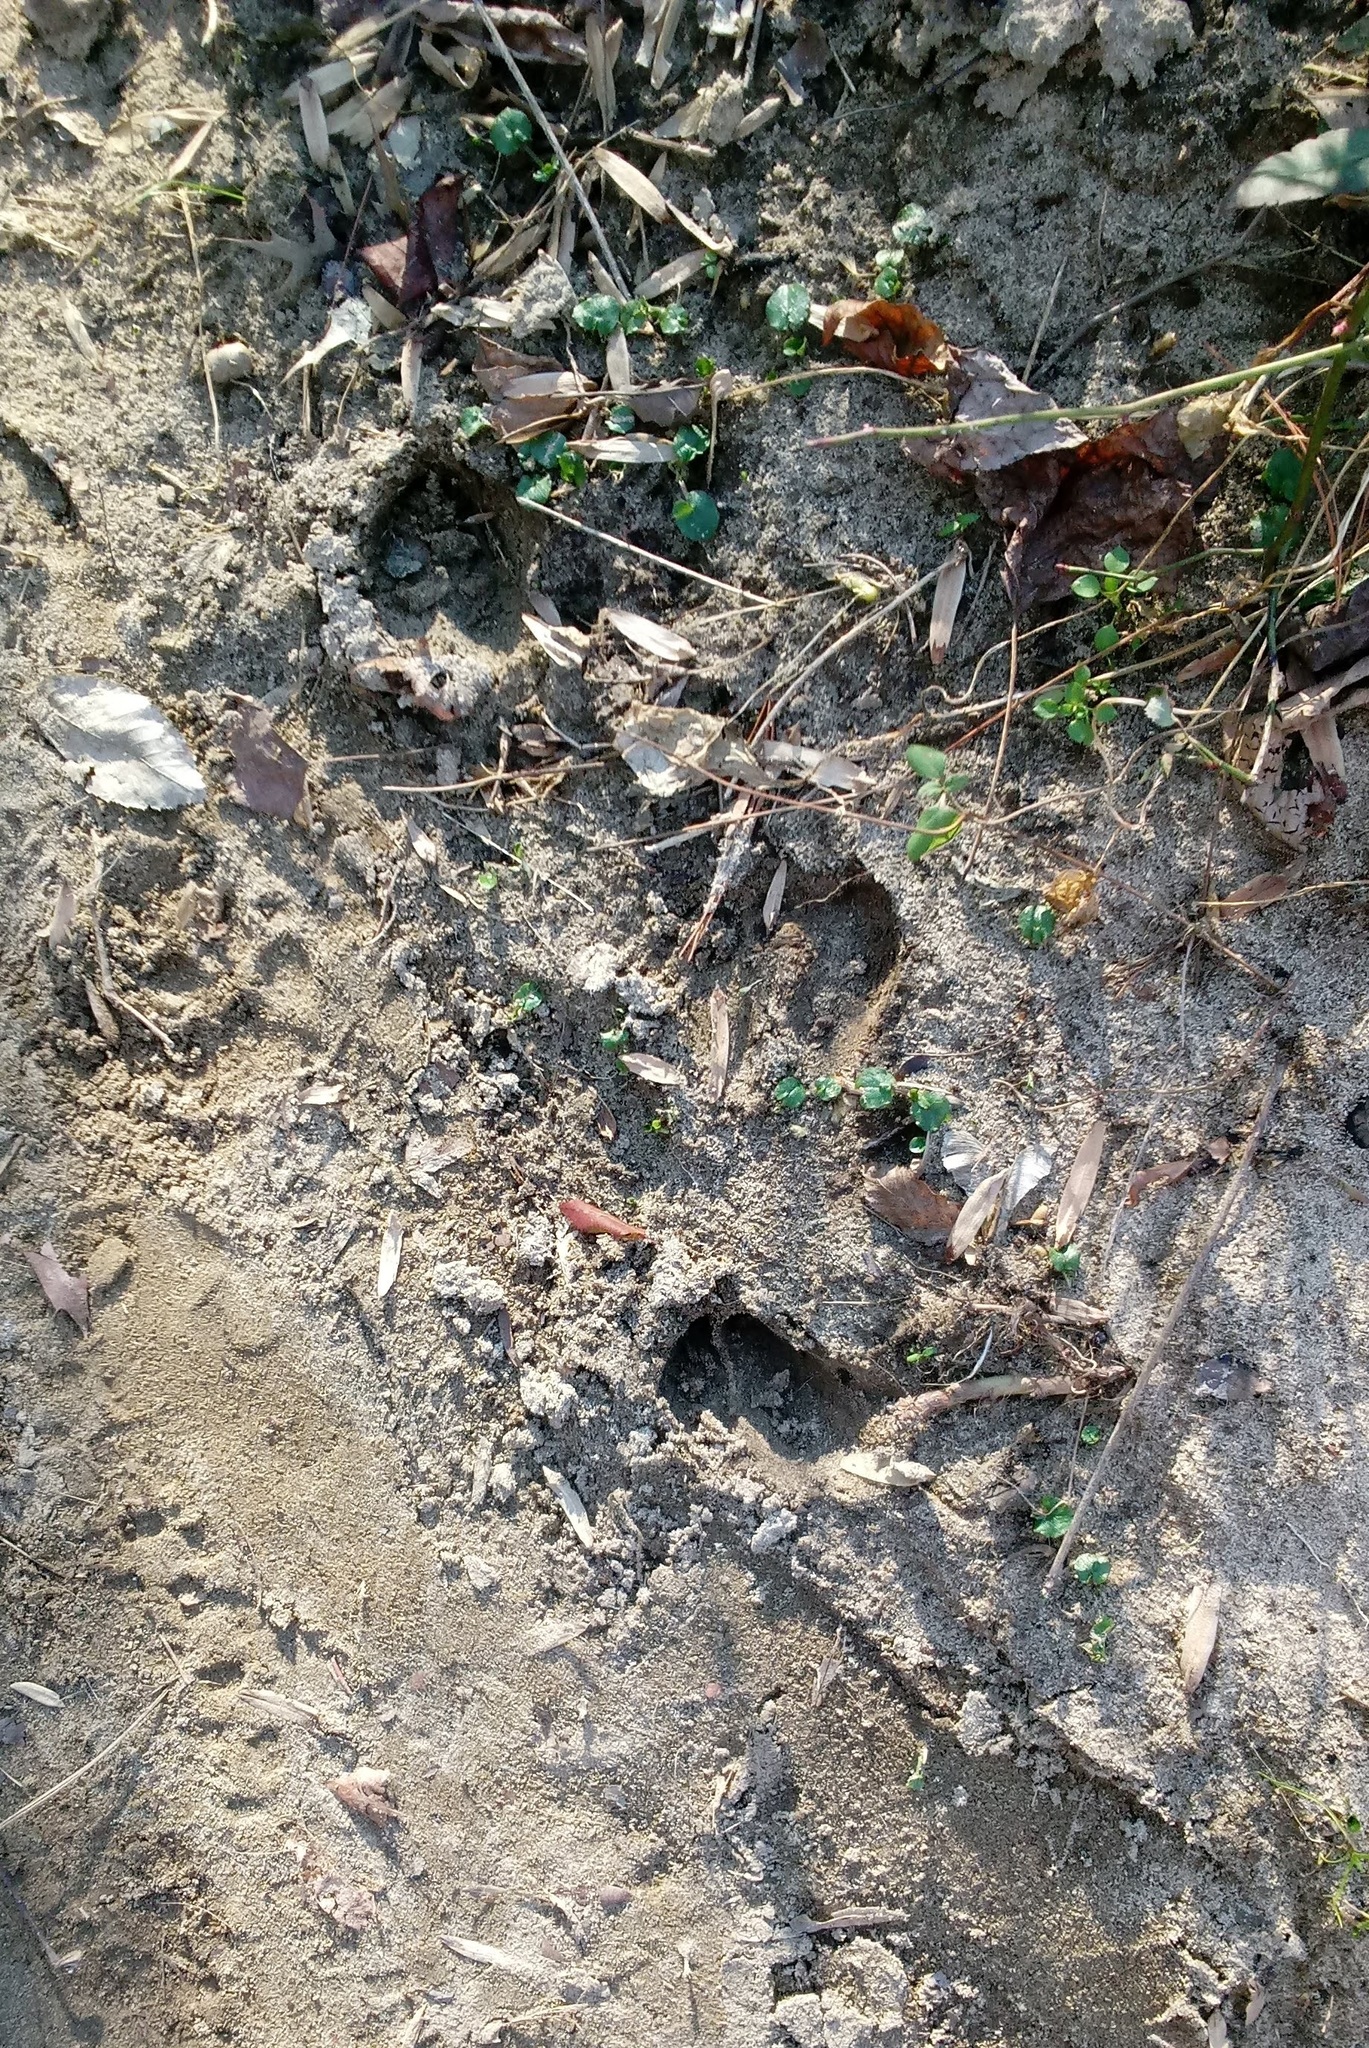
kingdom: Animalia
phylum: Chordata
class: Mammalia
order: Artiodactyla
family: Cervidae
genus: Odocoileus
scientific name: Odocoileus virginianus
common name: White-tailed deer
